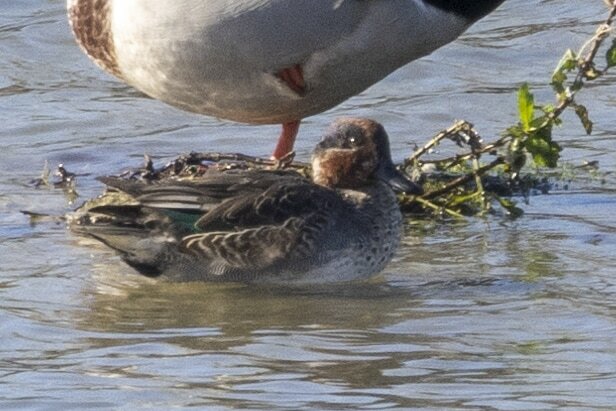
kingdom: Animalia
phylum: Chordata
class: Aves
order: Anseriformes
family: Anatidae
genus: Anas
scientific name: Anas crecca
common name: Eurasian teal
